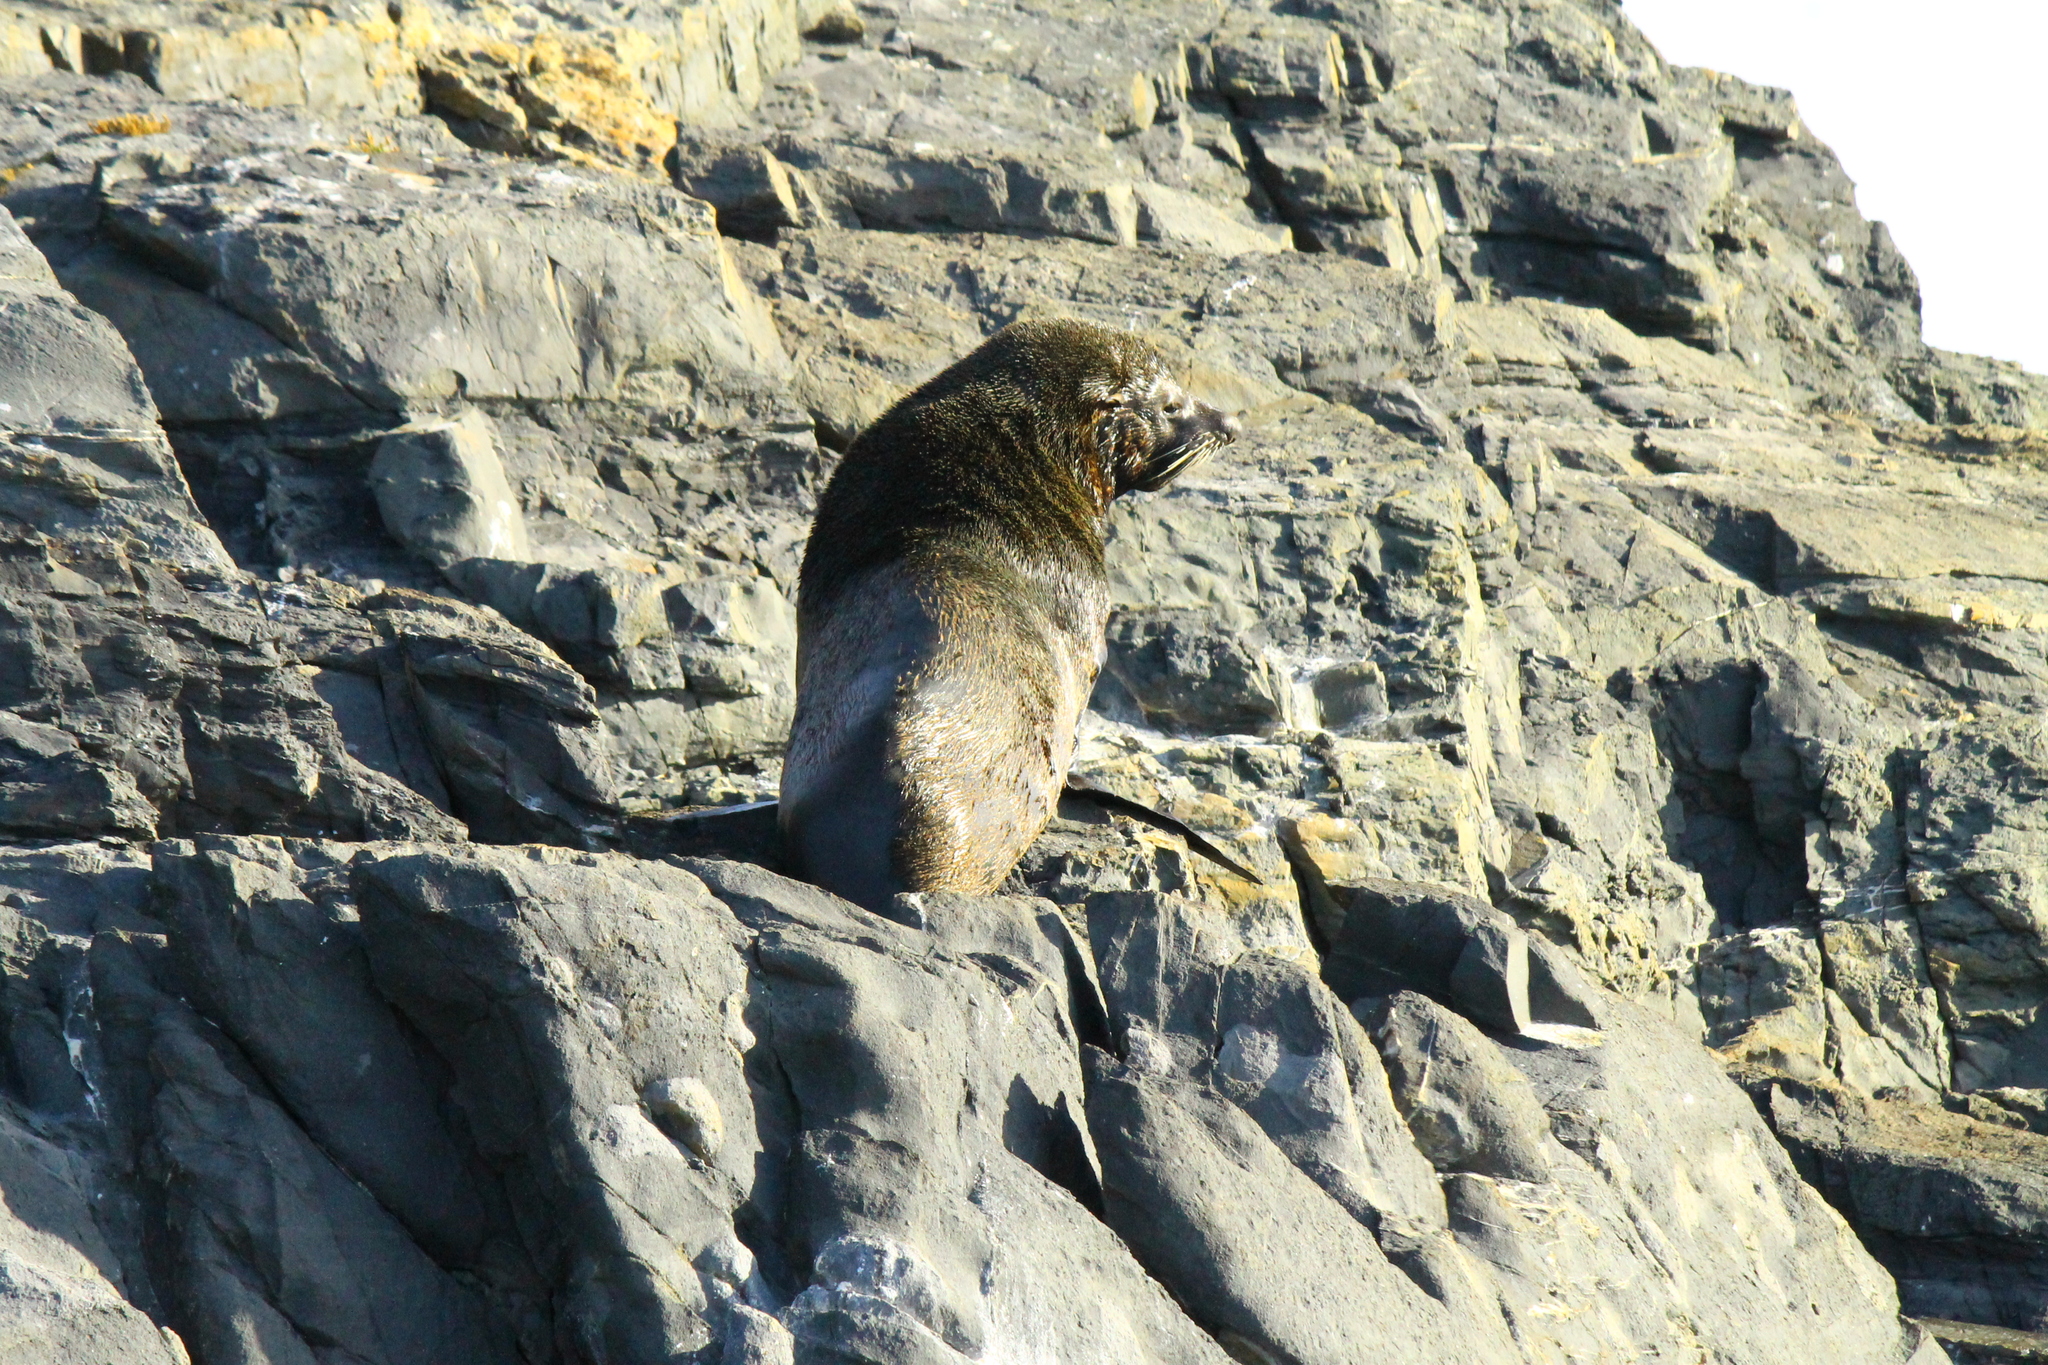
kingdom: Animalia
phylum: Chordata
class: Mammalia
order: Carnivora
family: Otariidae
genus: Arctocephalus
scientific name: Arctocephalus australis
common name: South american fur seal
